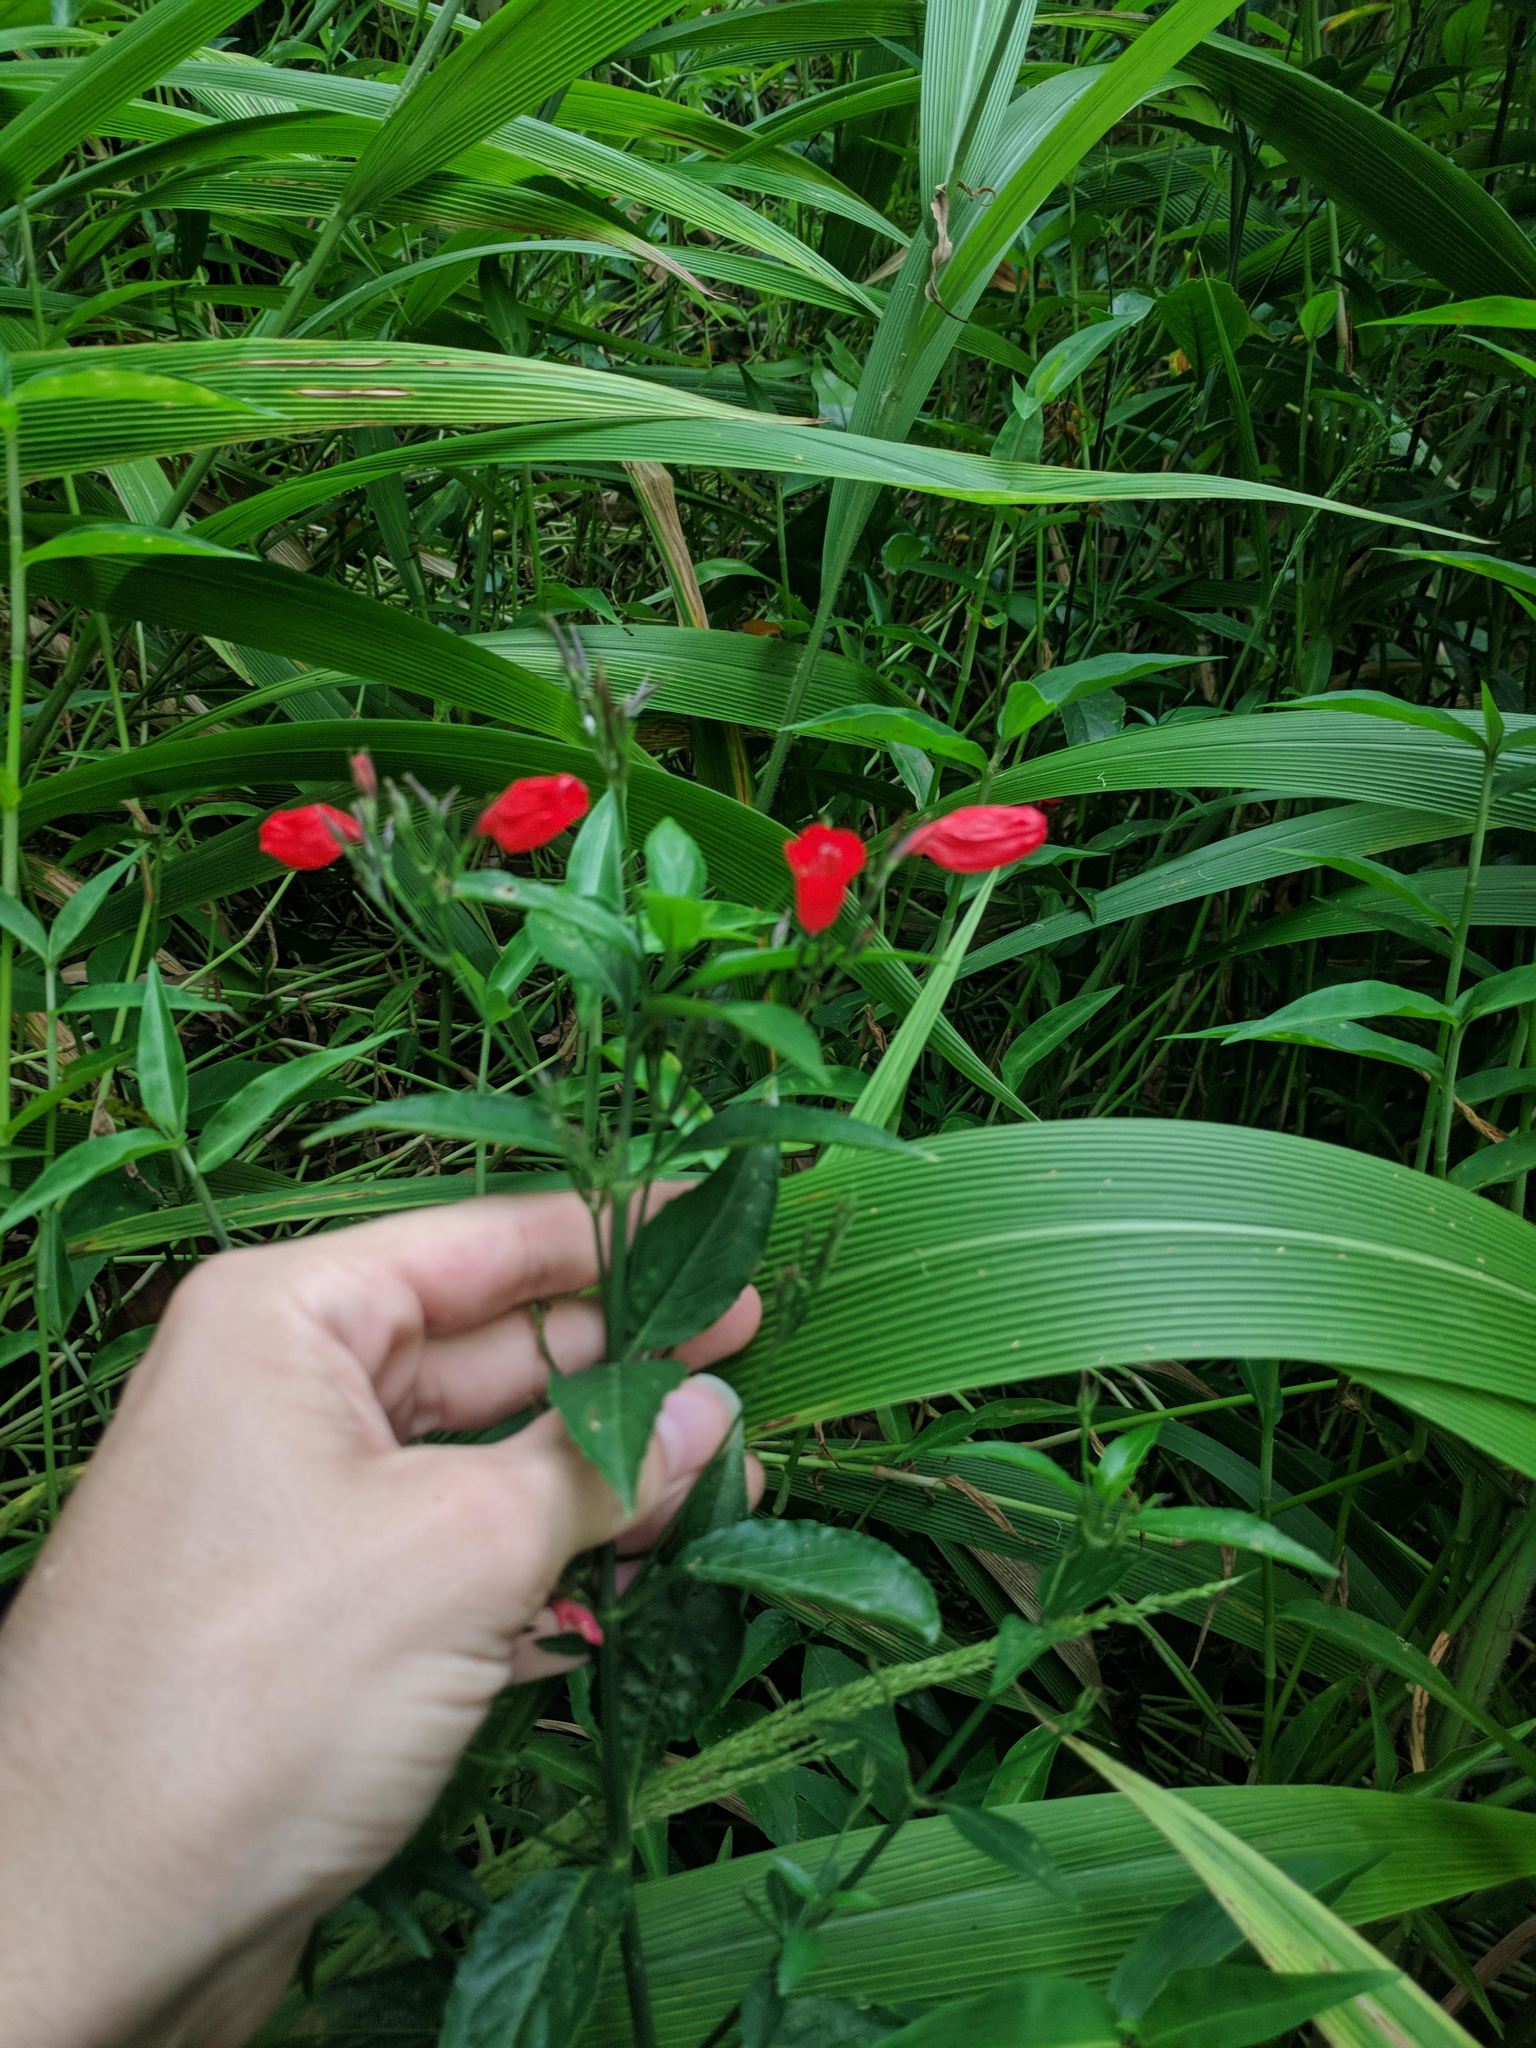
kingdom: Plantae
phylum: Tracheophyta
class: Magnoliopsida
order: Lamiales
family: Acanthaceae
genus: Ruellia
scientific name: Ruellia brevifolia
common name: Tropical wild petunia
